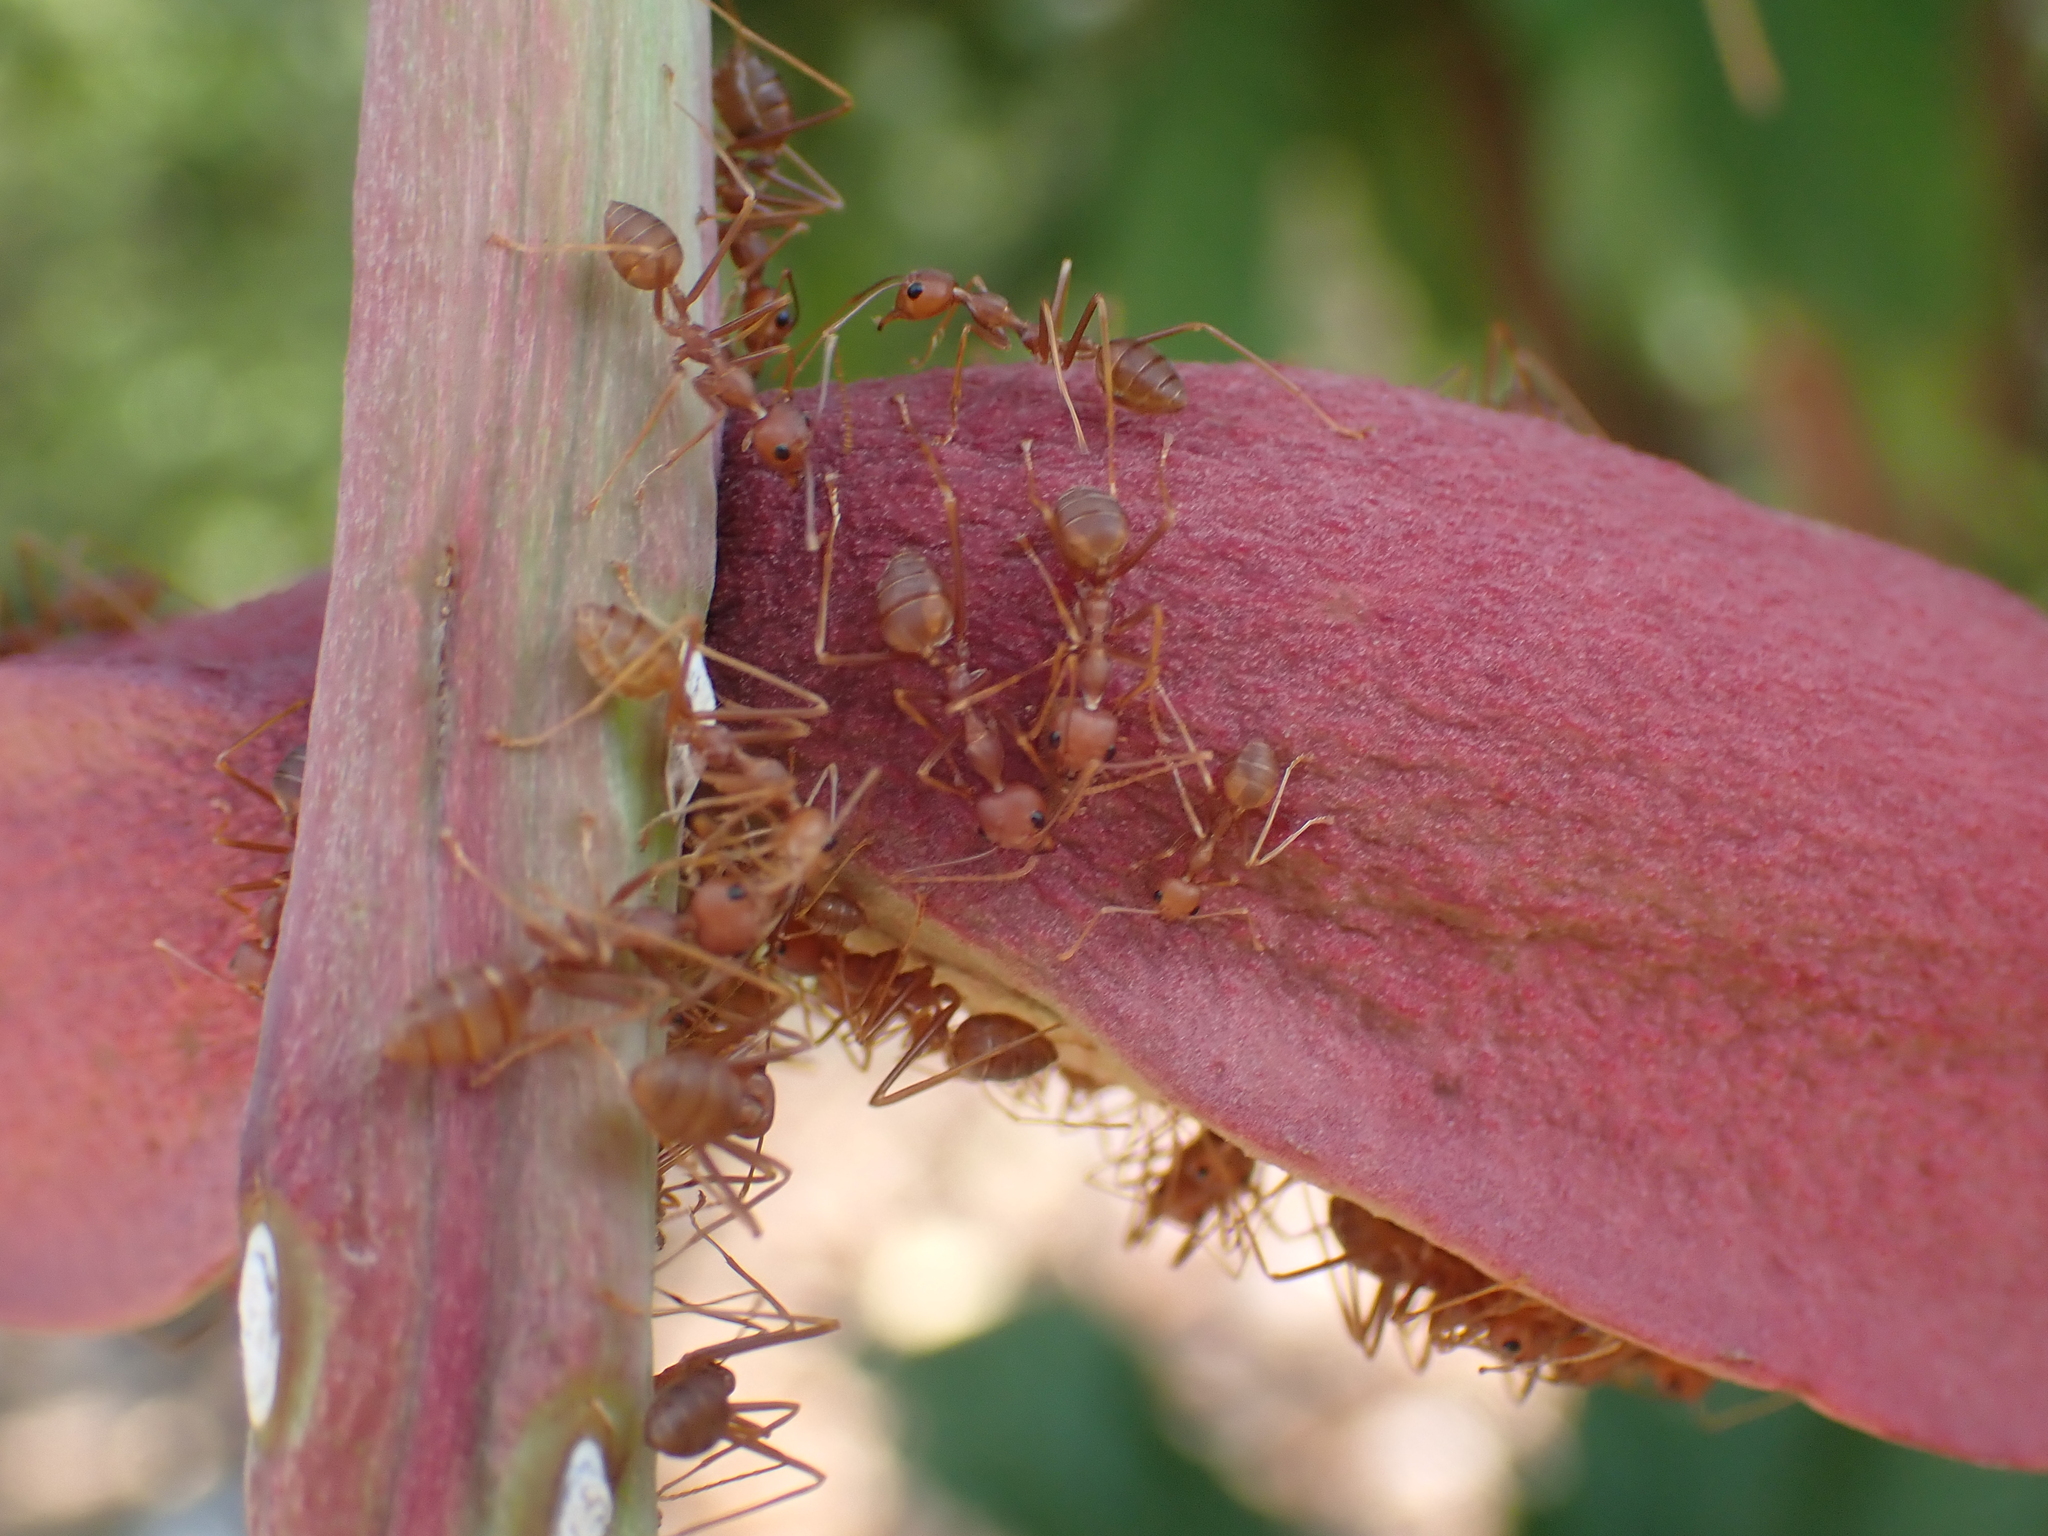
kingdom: Animalia
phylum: Arthropoda
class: Insecta
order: Hymenoptera
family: Formicidae
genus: Oecophylla
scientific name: Oecophylla smaragdina
